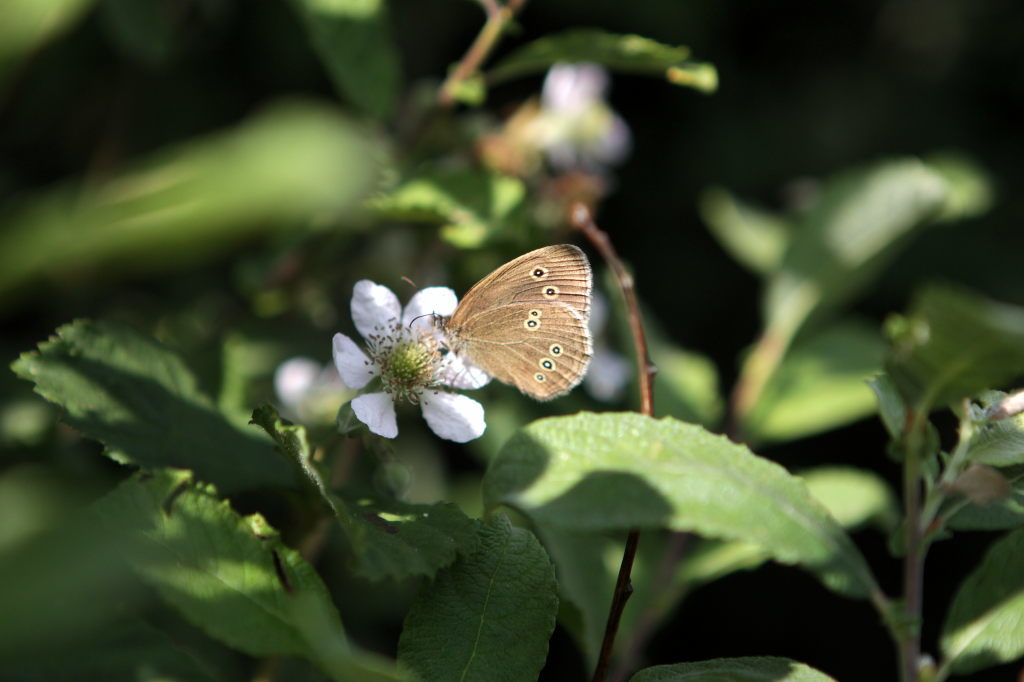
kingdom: Animalia
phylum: Arthropoda
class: Insecta
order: Lepidoptera
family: Nymphalidae
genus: Aphantopus
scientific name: Aphantopus hyperantus
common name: Ringlet
